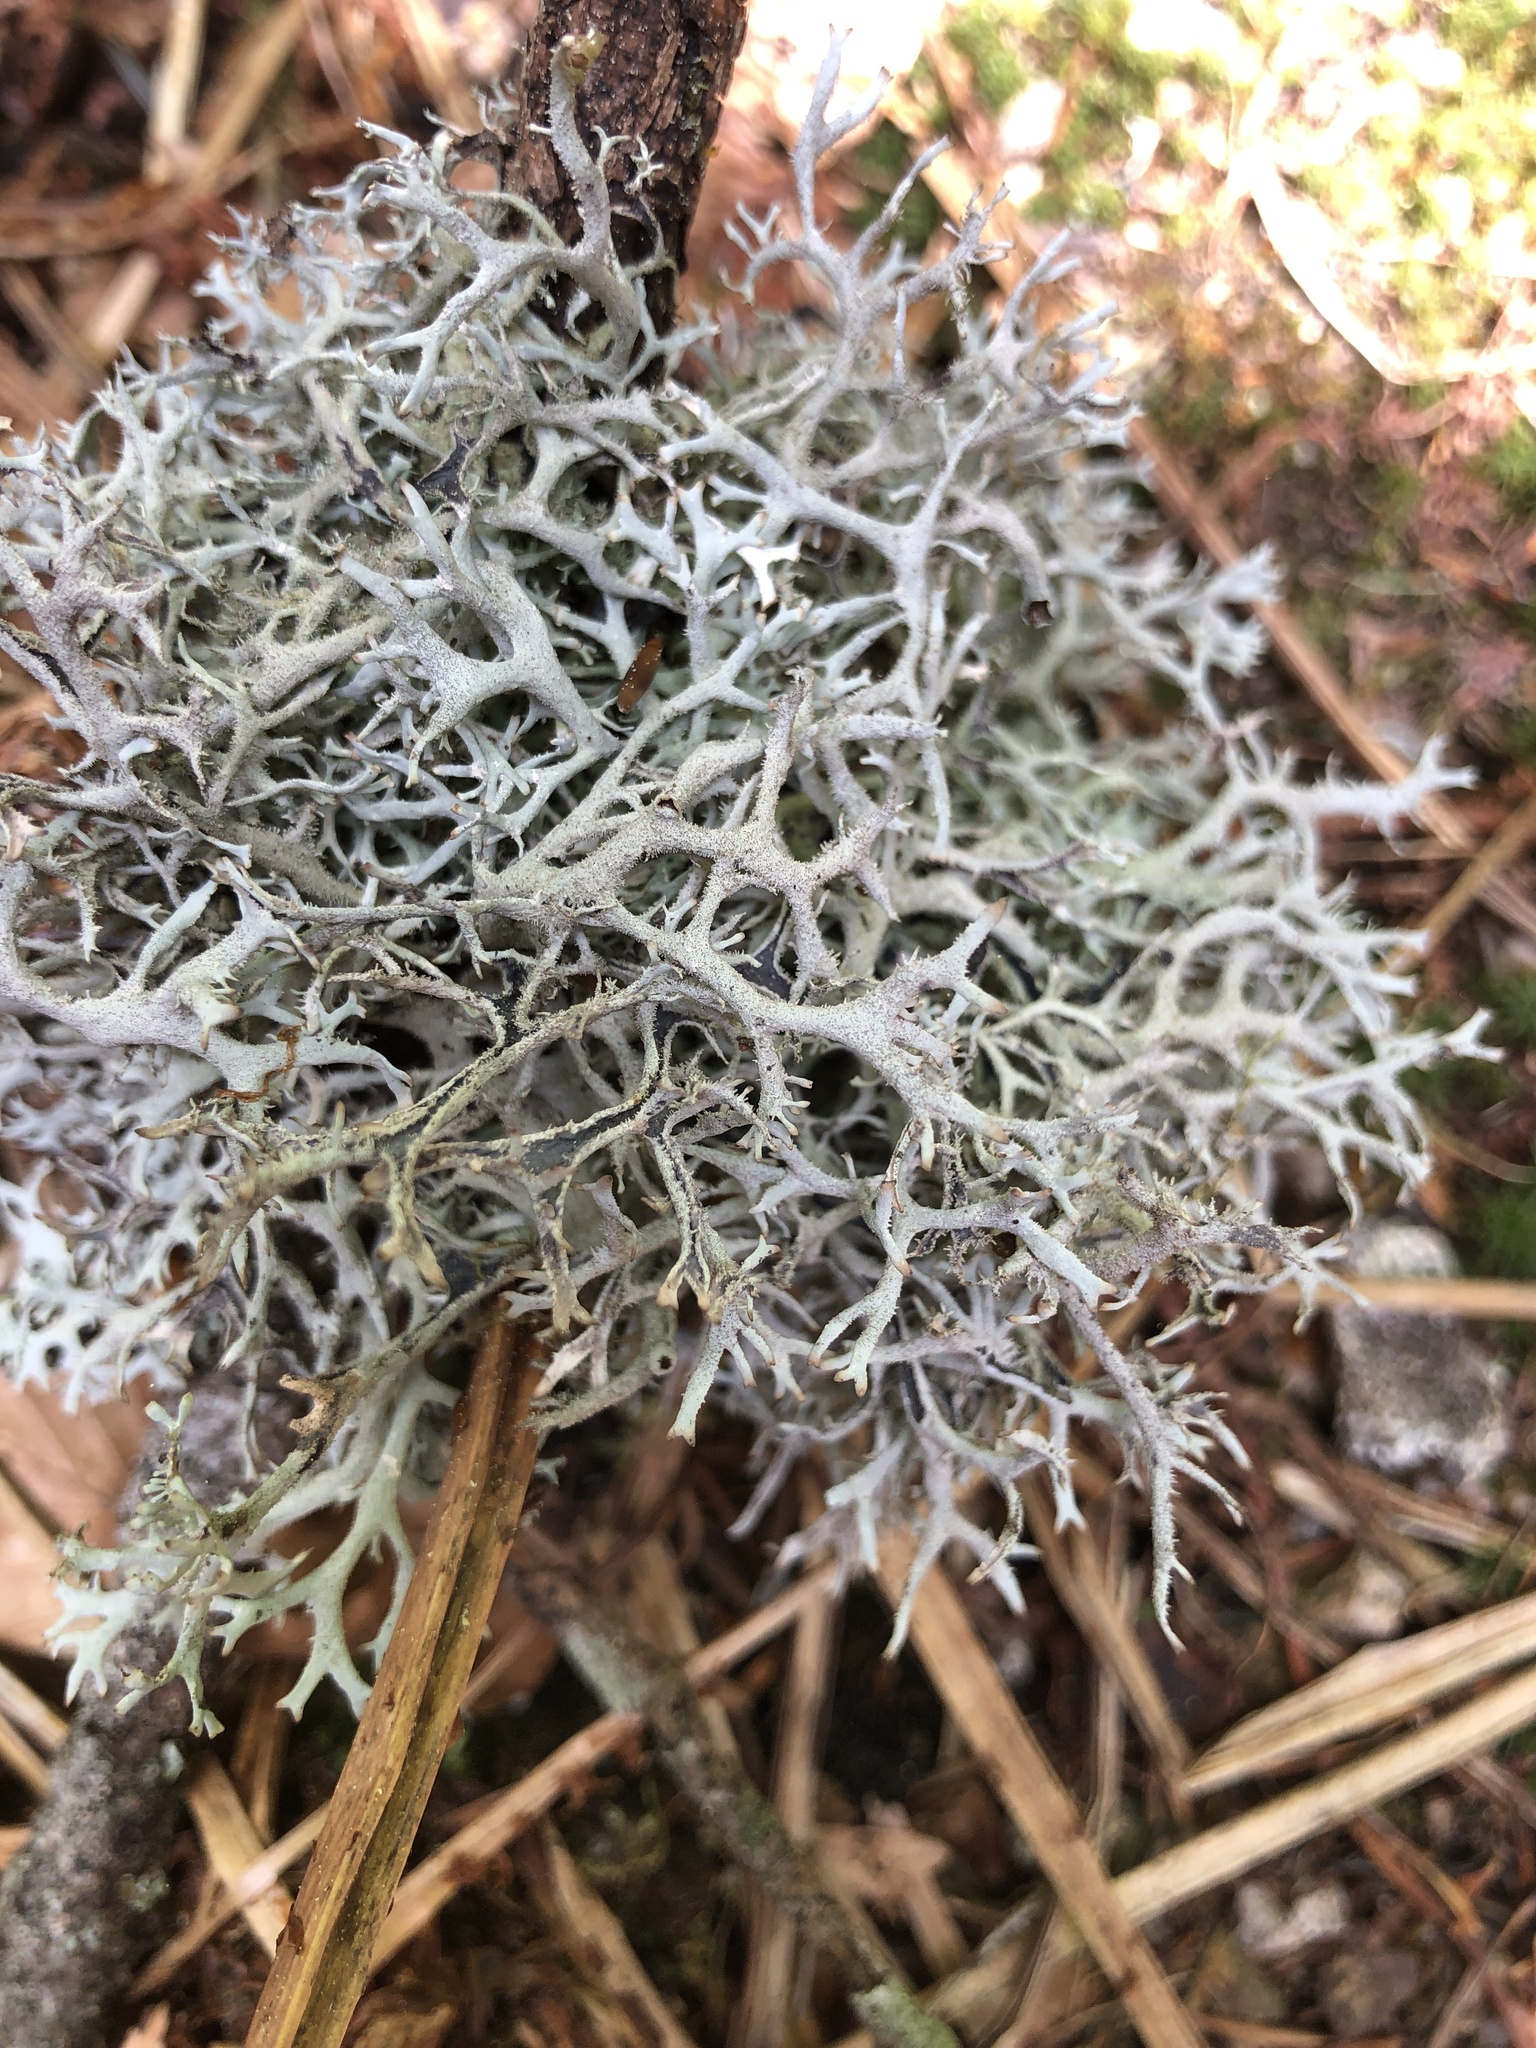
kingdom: Fungi
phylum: Ascomycota
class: Lecanoromycetes
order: Lecanorales
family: Parmeliaceae
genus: Pseudevernia
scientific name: Pseudevernia furfuracea
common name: Tree moss
